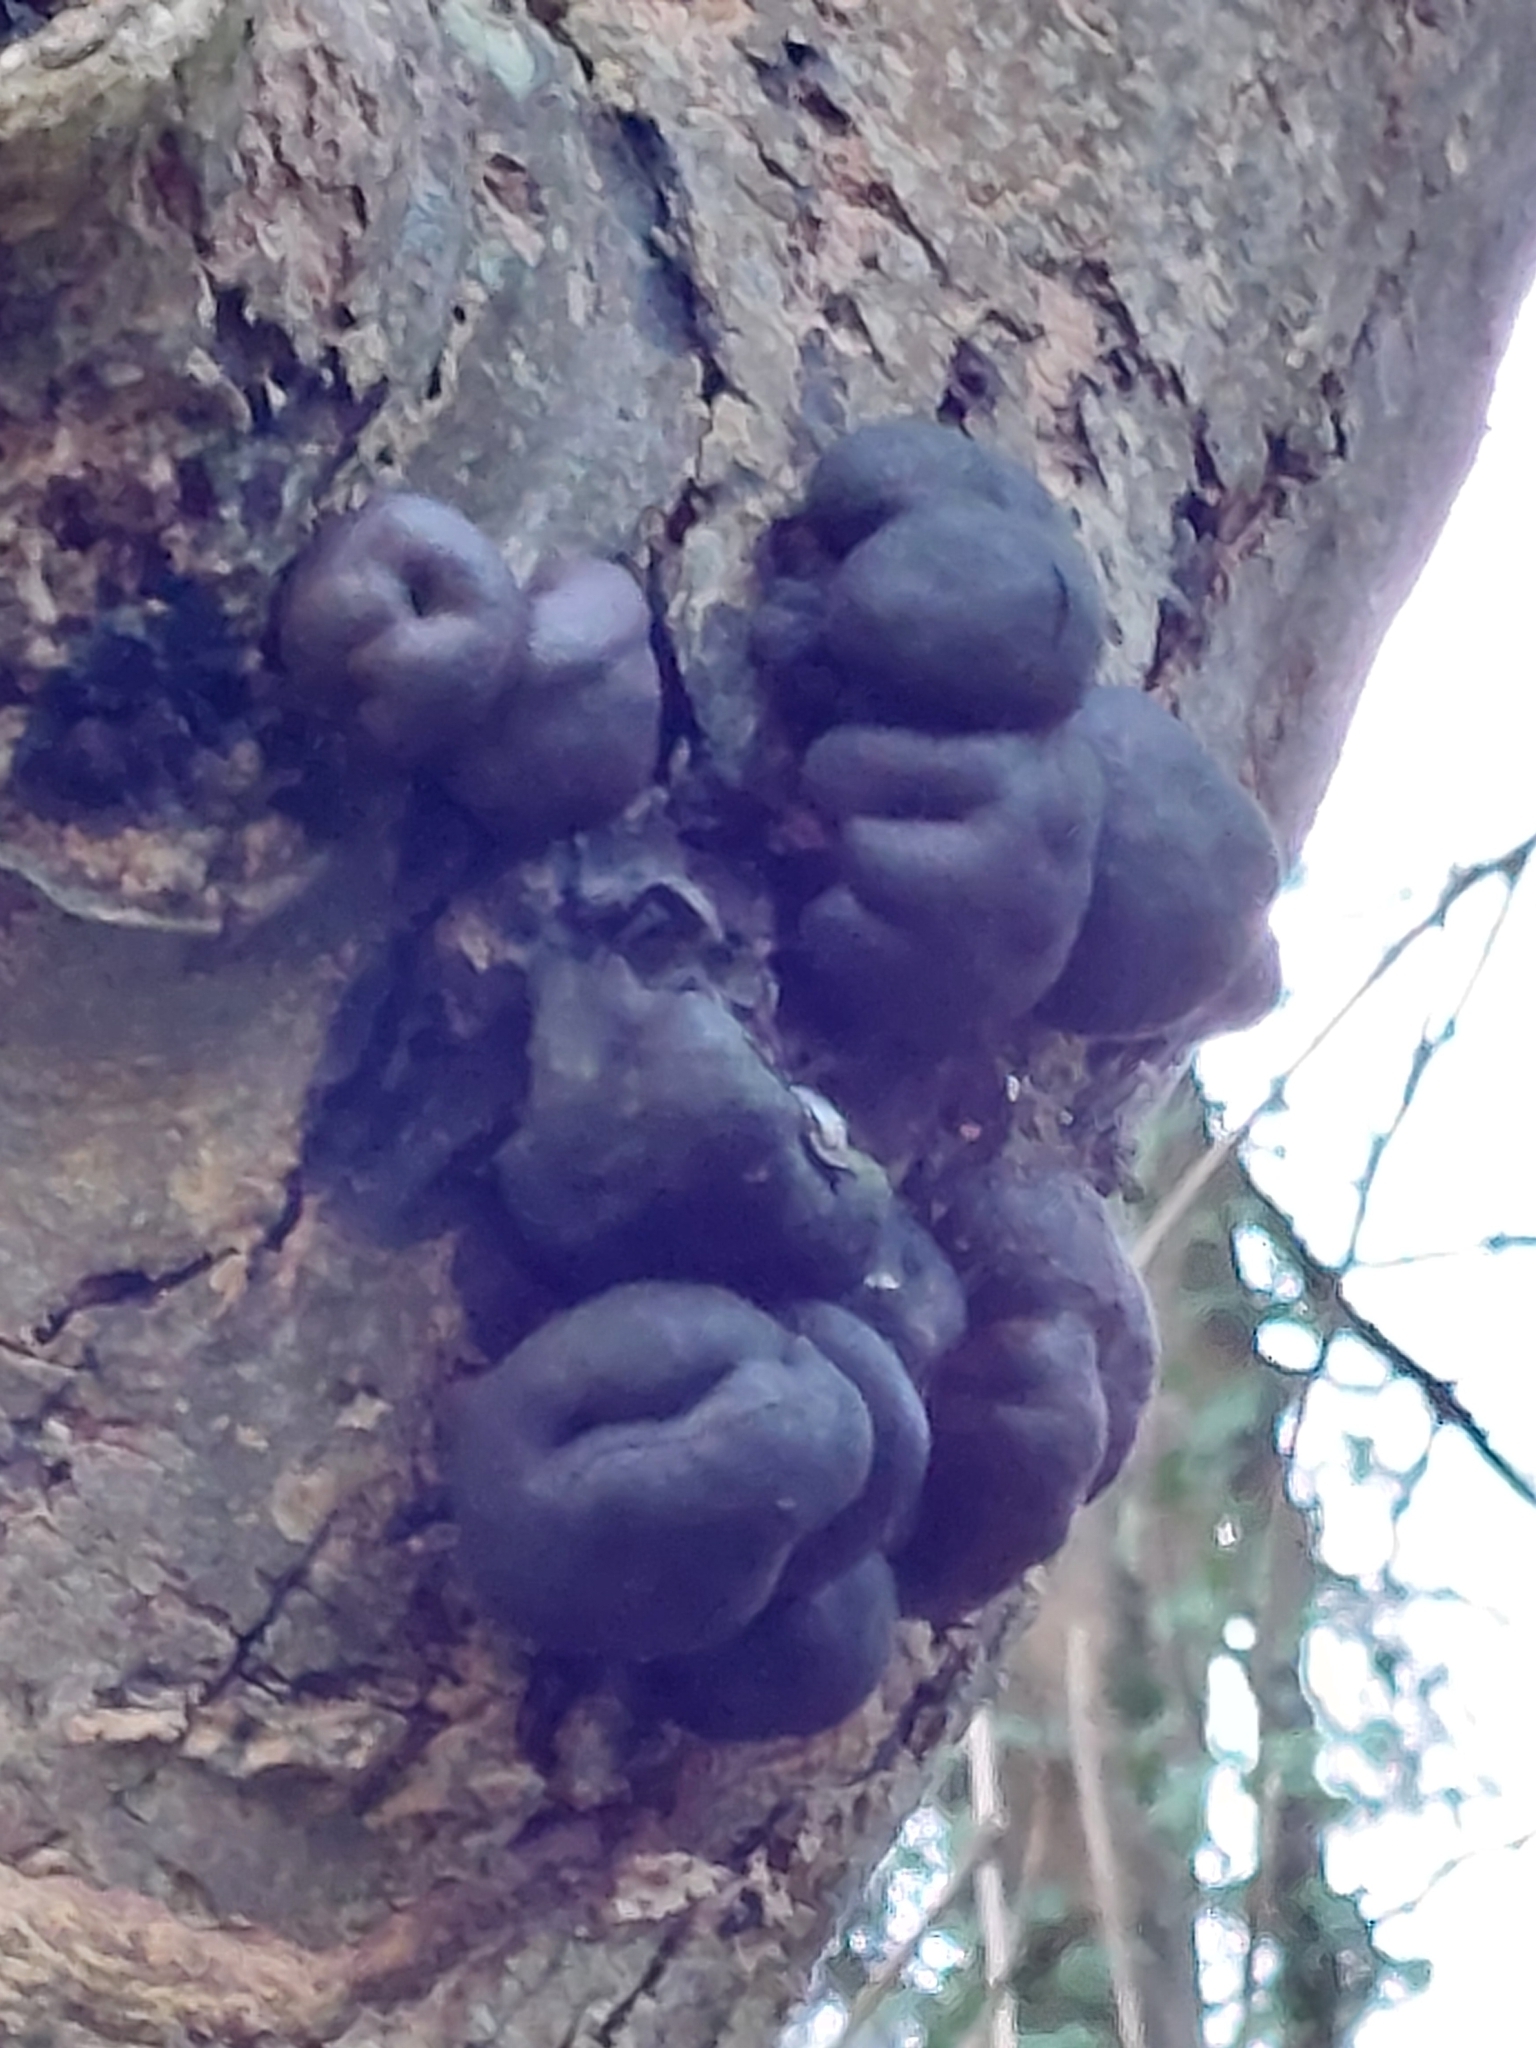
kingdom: Fungi
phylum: Ascomycota
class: Sordariomycetes
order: Xylariales
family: Hypoxylaceae
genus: Daldinia
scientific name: Daldinia concentrica
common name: Cramp balls
